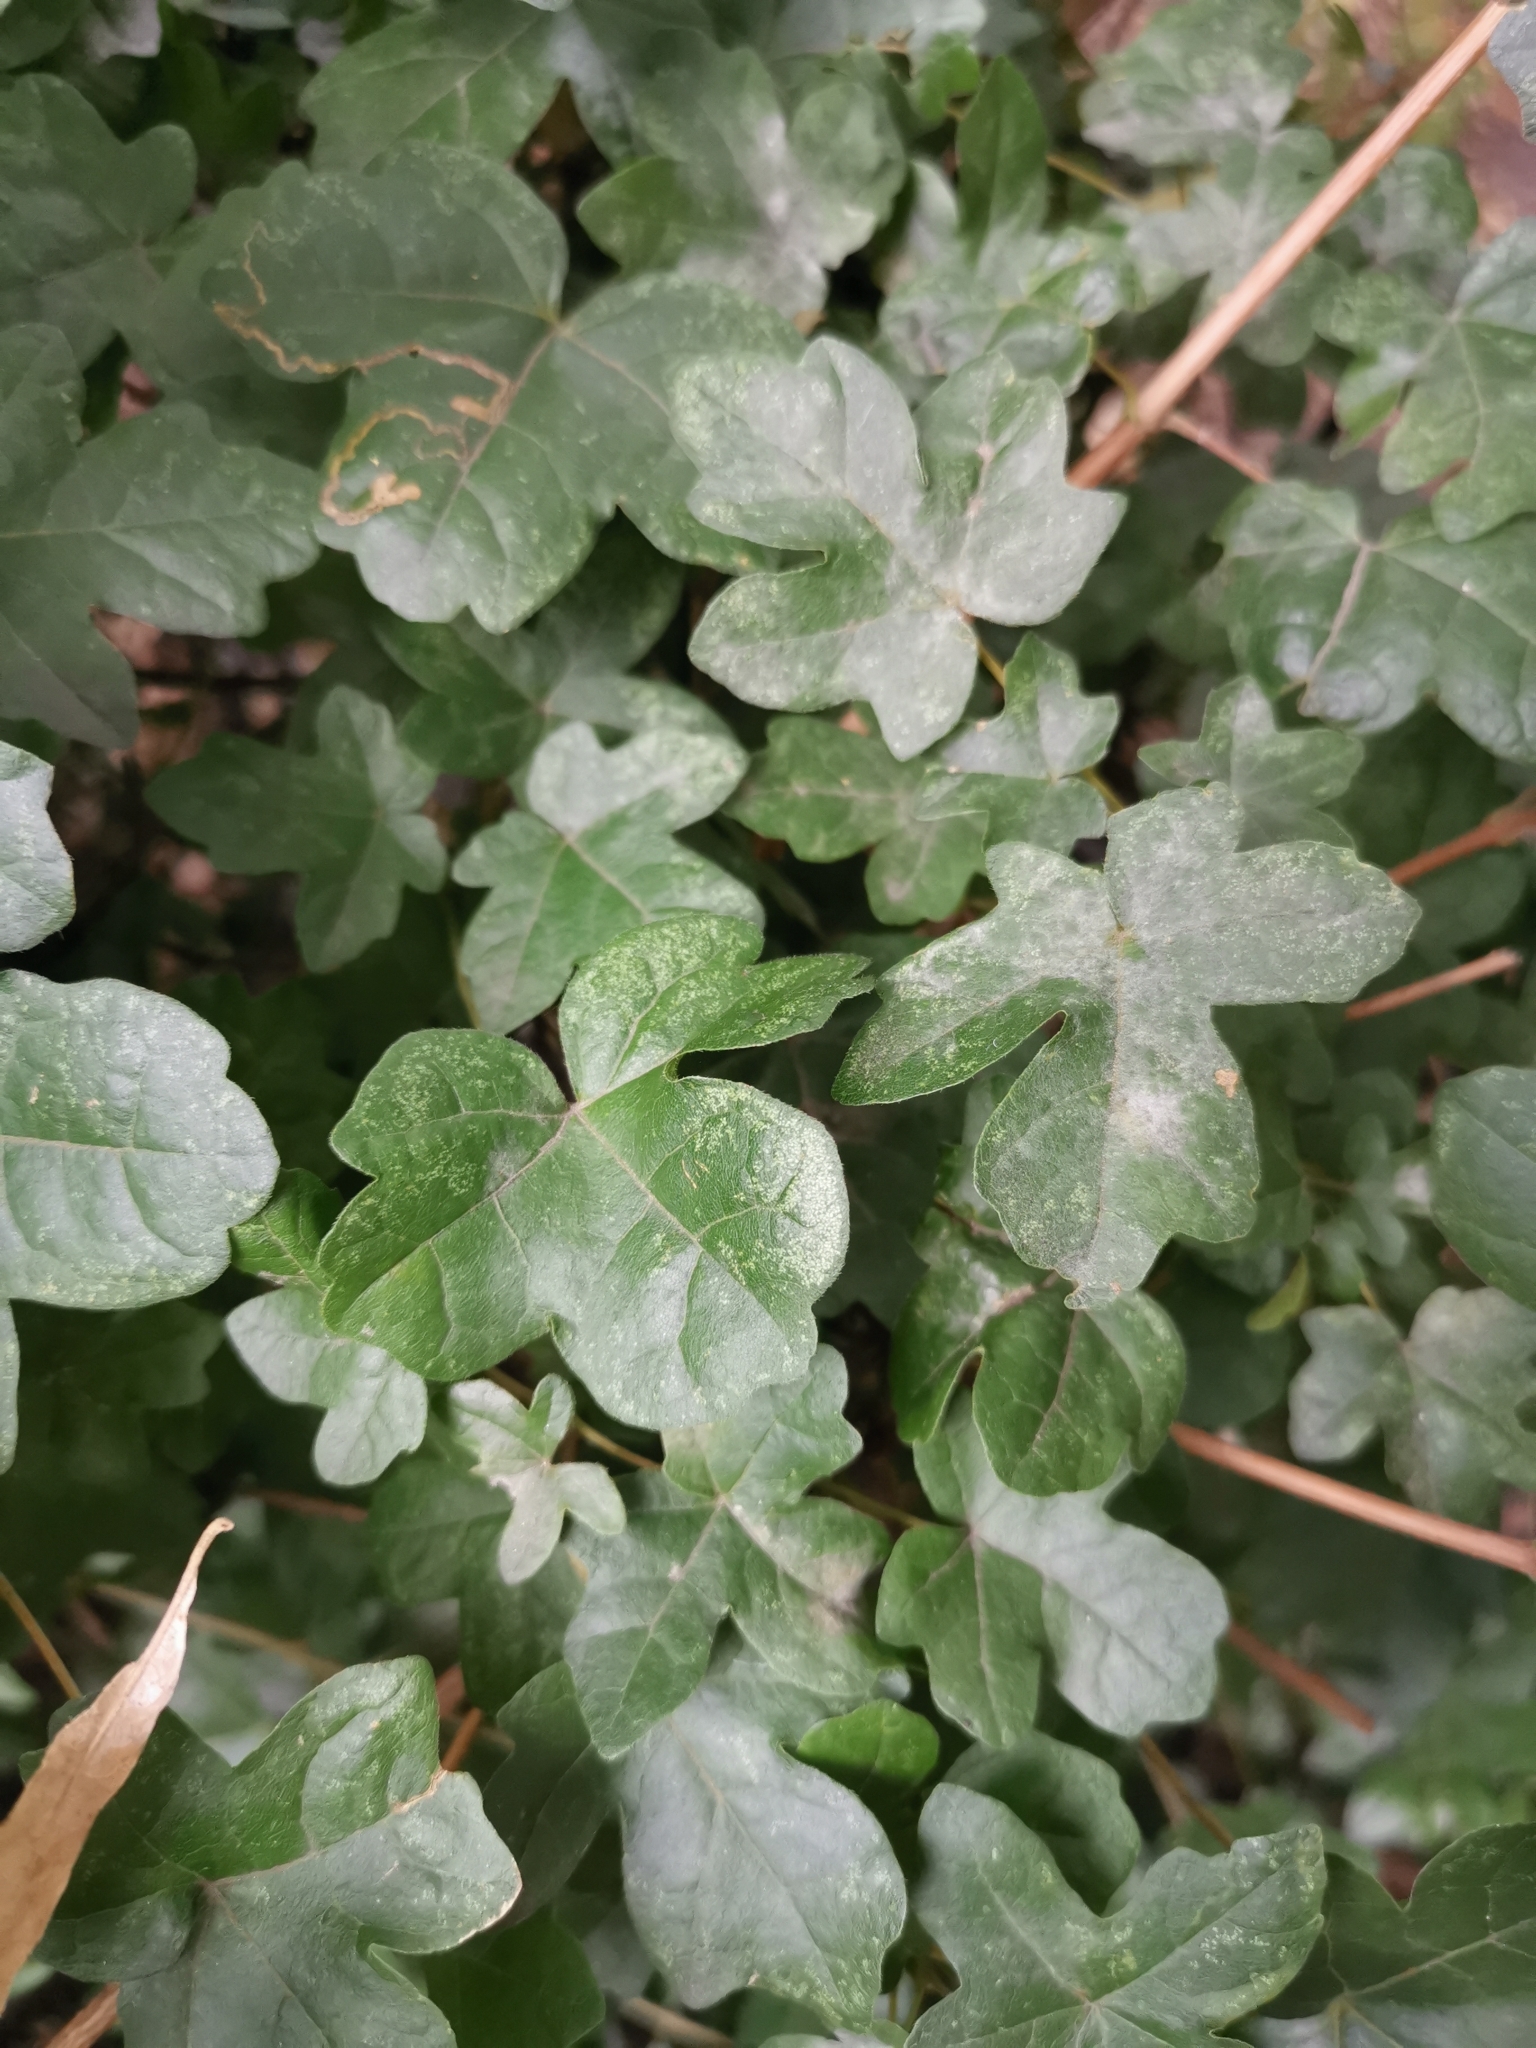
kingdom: Plantae
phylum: Tracheophyta
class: Magnoliopsida
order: Sapindales
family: Sapindaceae
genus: Acer
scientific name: Acer campestre
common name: Field maple
